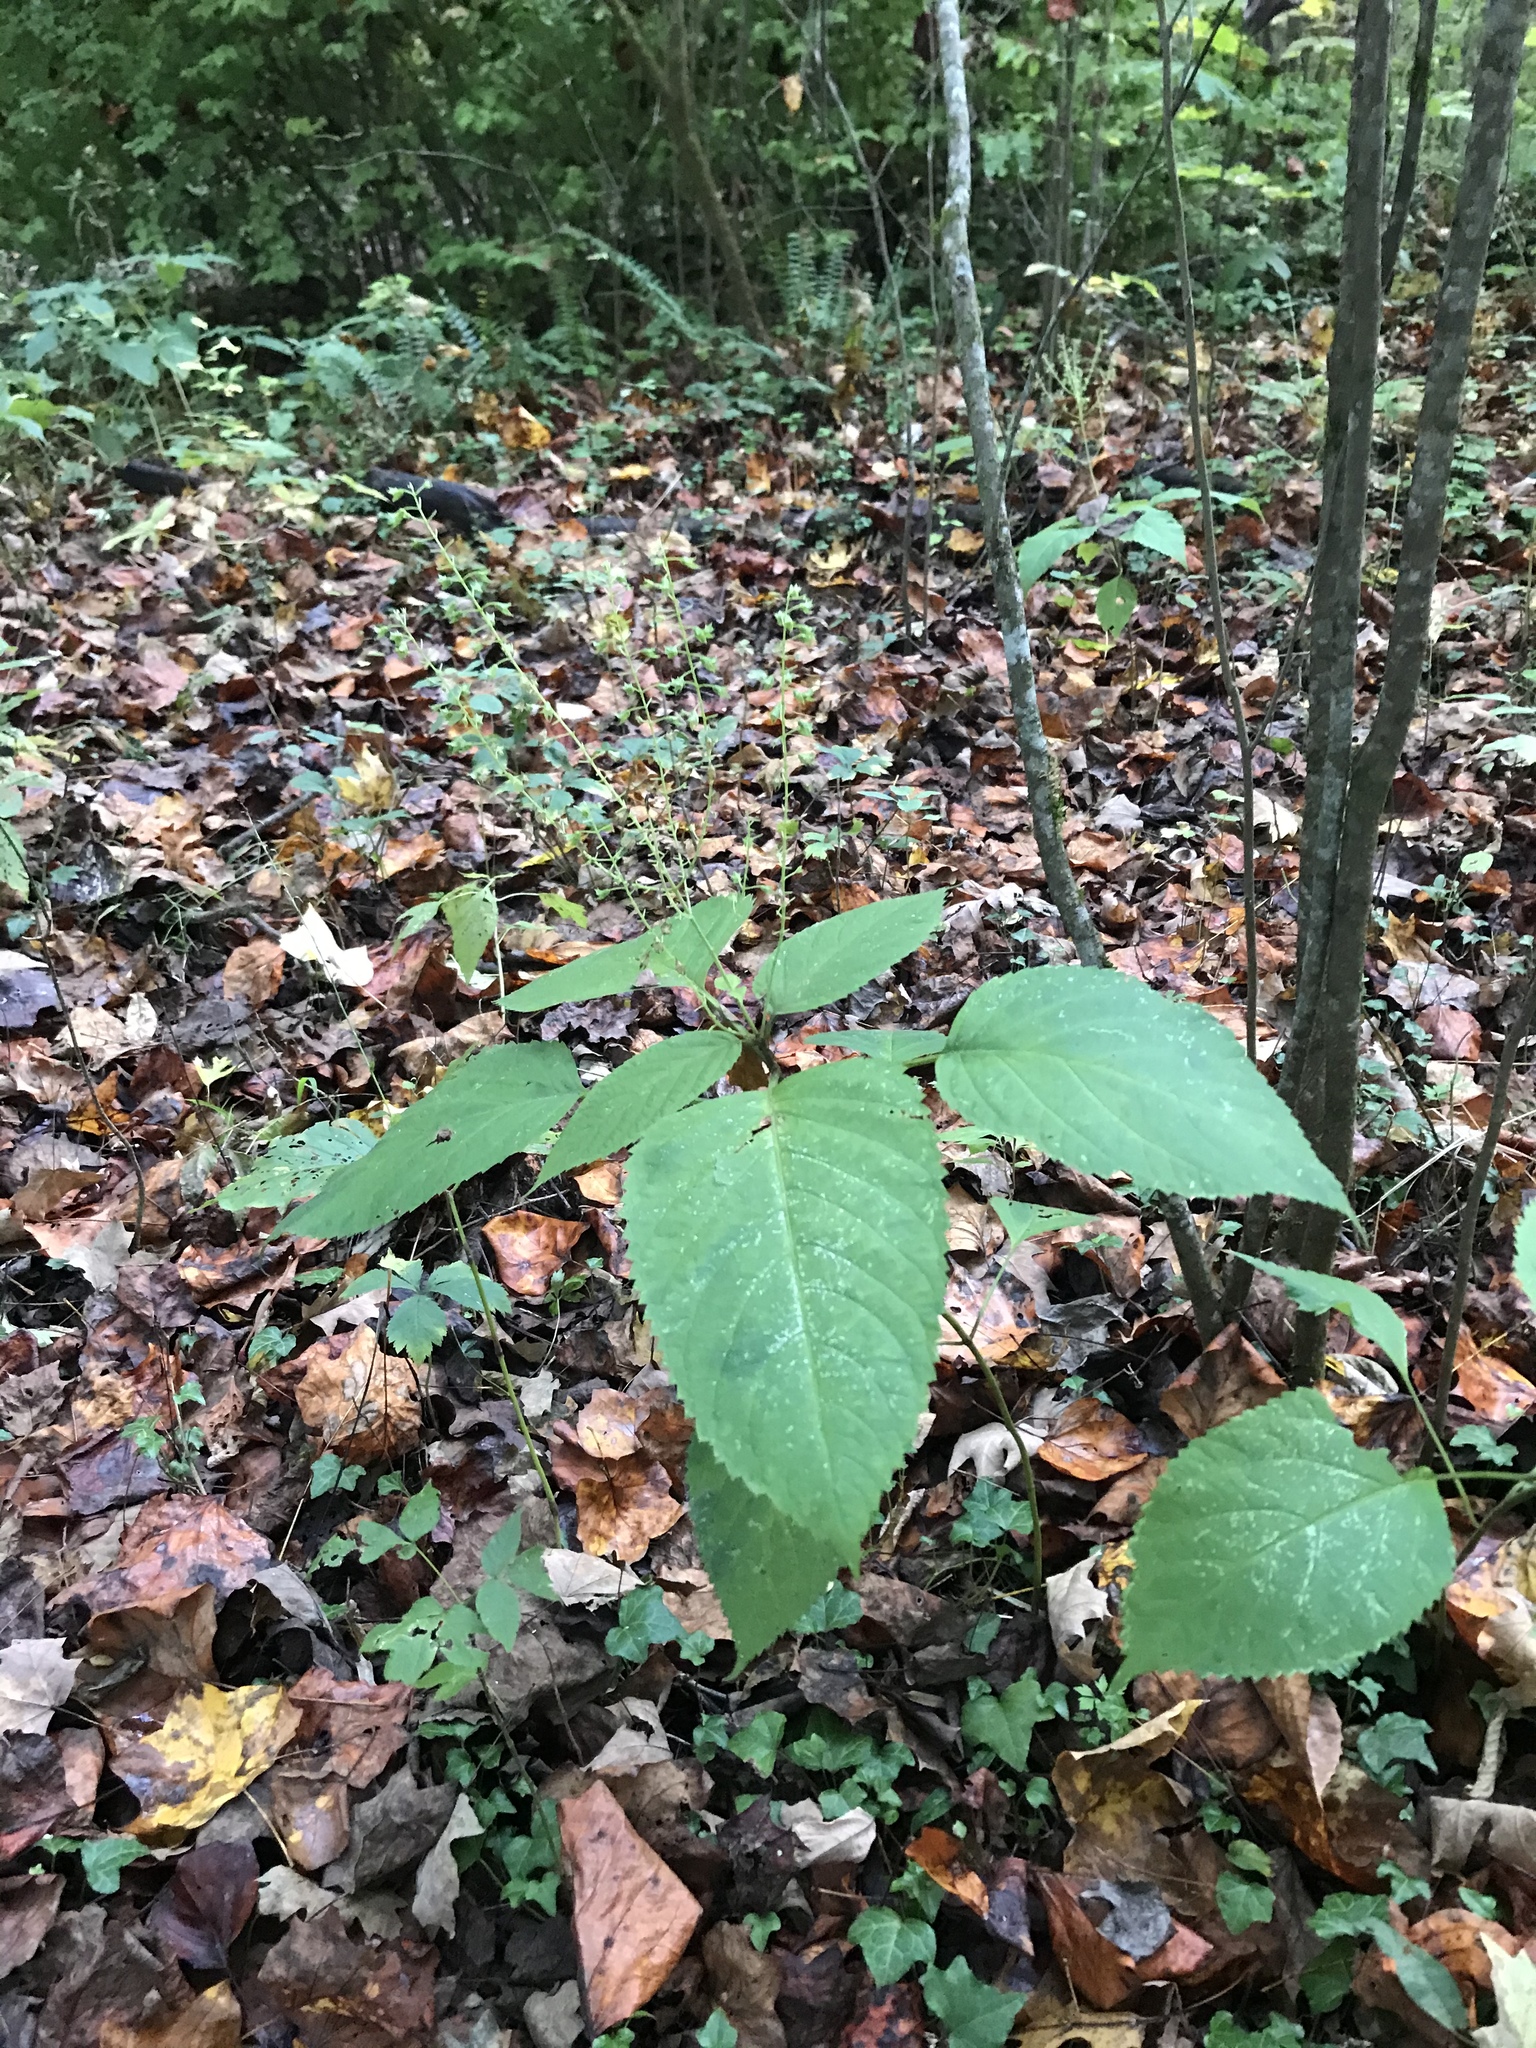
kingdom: Plantae
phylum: Tracheophyta
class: Magnoliopsida
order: Lamiales
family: Lamiaceae
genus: Collinsonia
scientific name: Collinsonia canadensis
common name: Northern horsebalm
